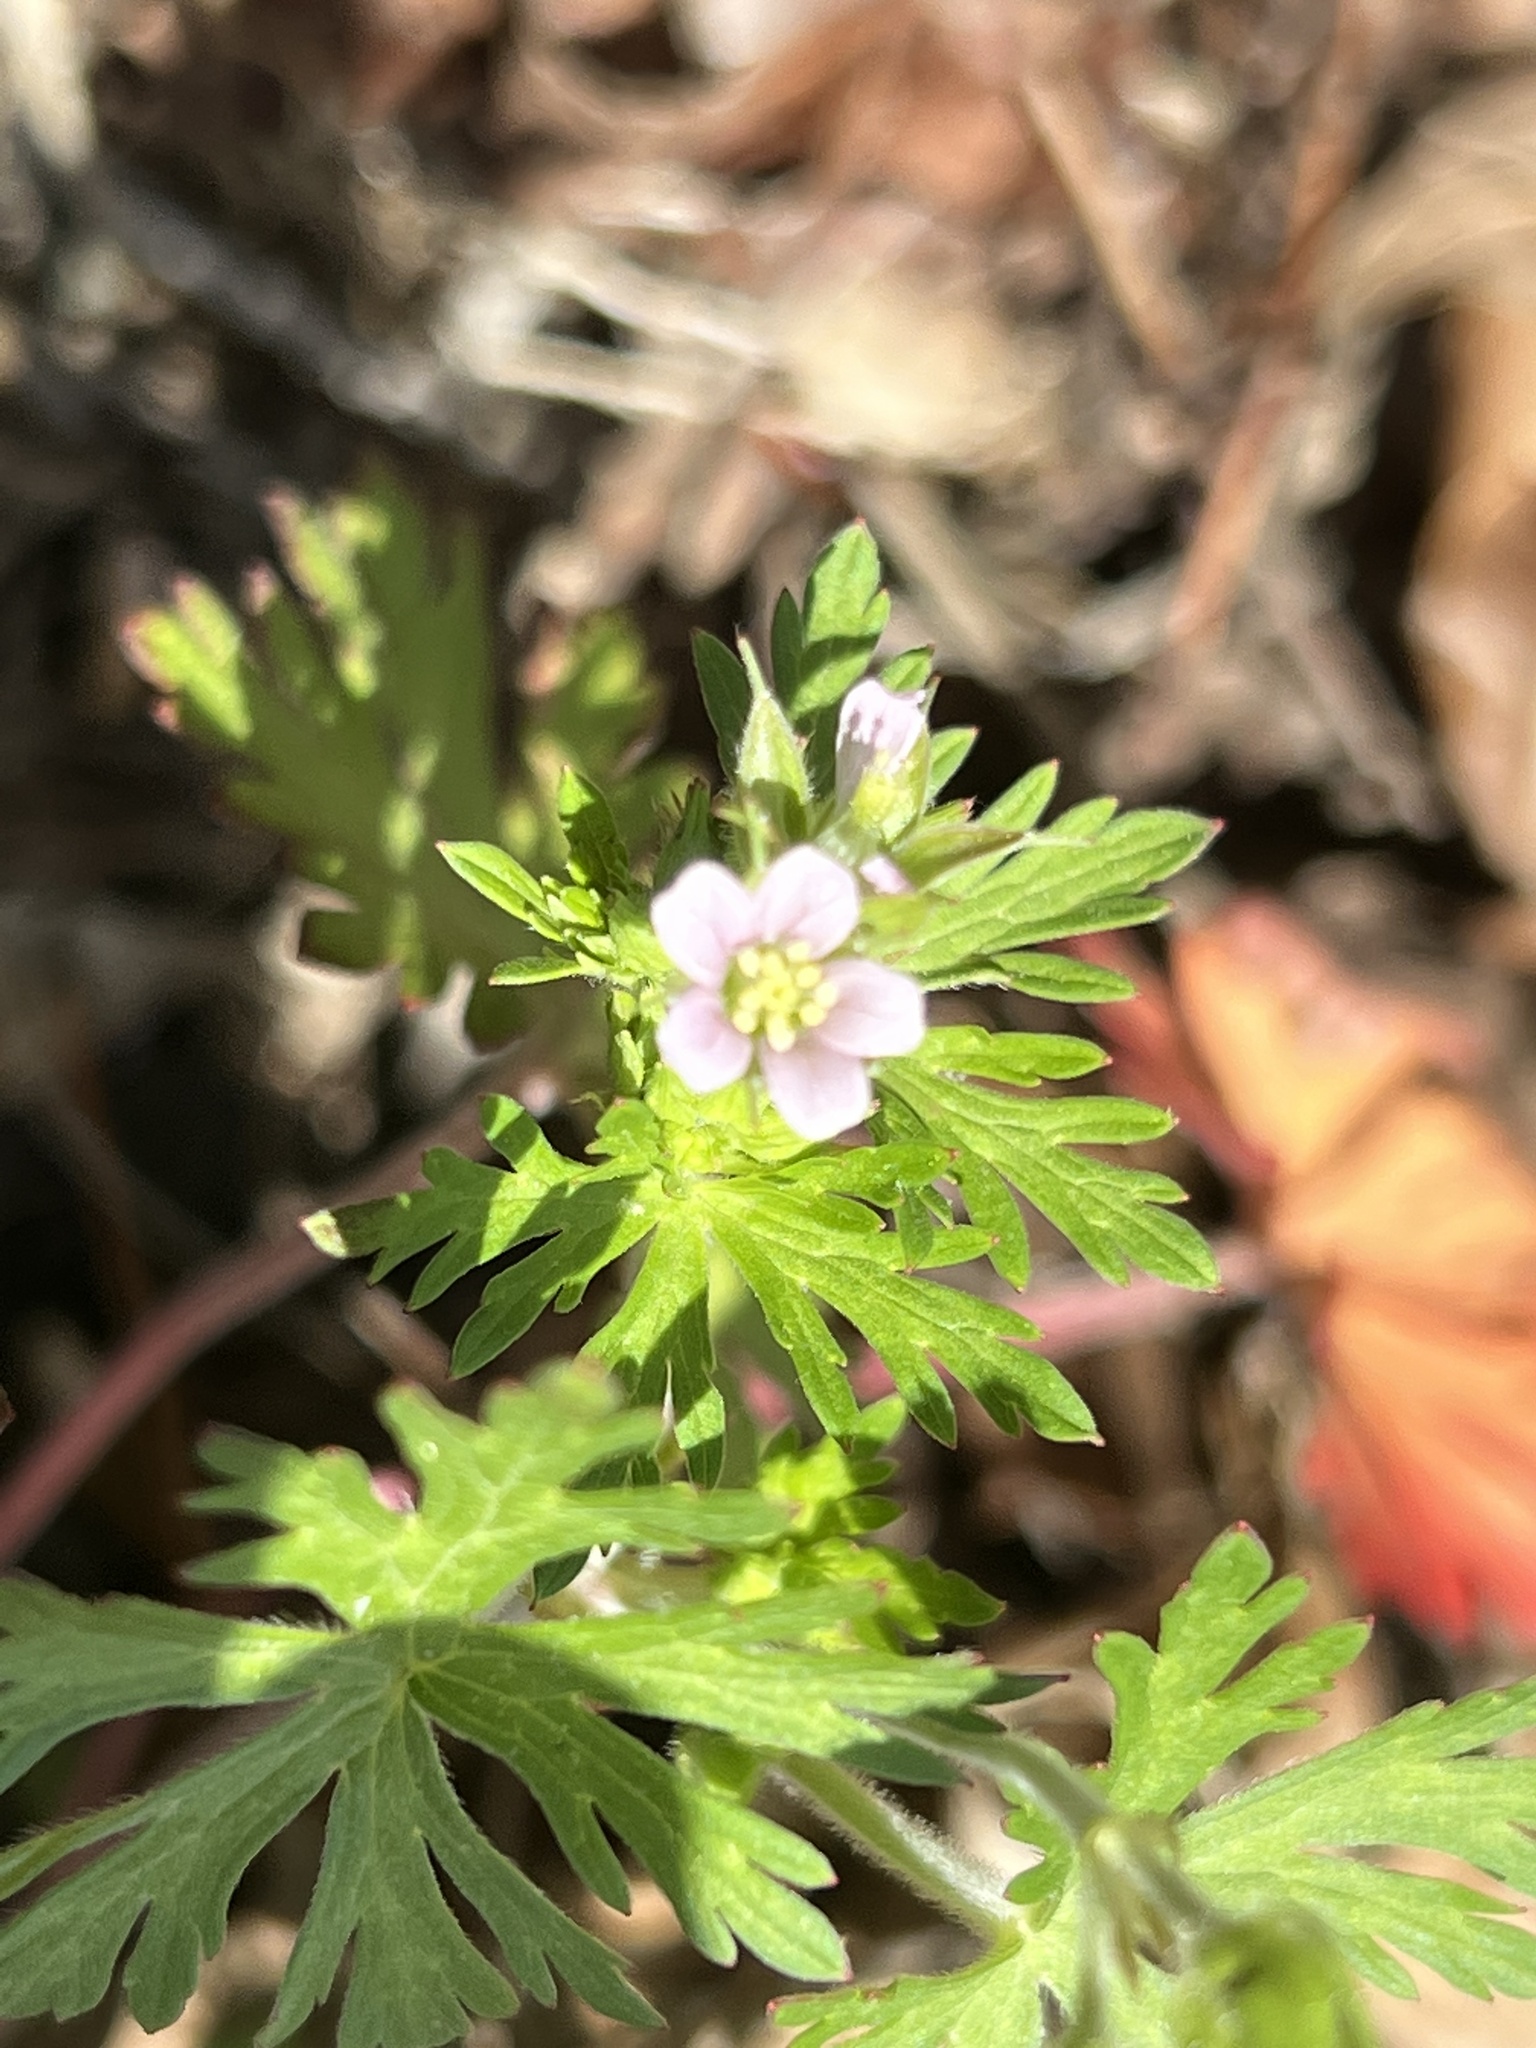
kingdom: Plantae
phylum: Tracheophyta
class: Magnoliopsida
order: Geraniales
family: Geraniaceae
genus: Geranium
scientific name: Geranium carolinianum
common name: Carolina crane's-bill
